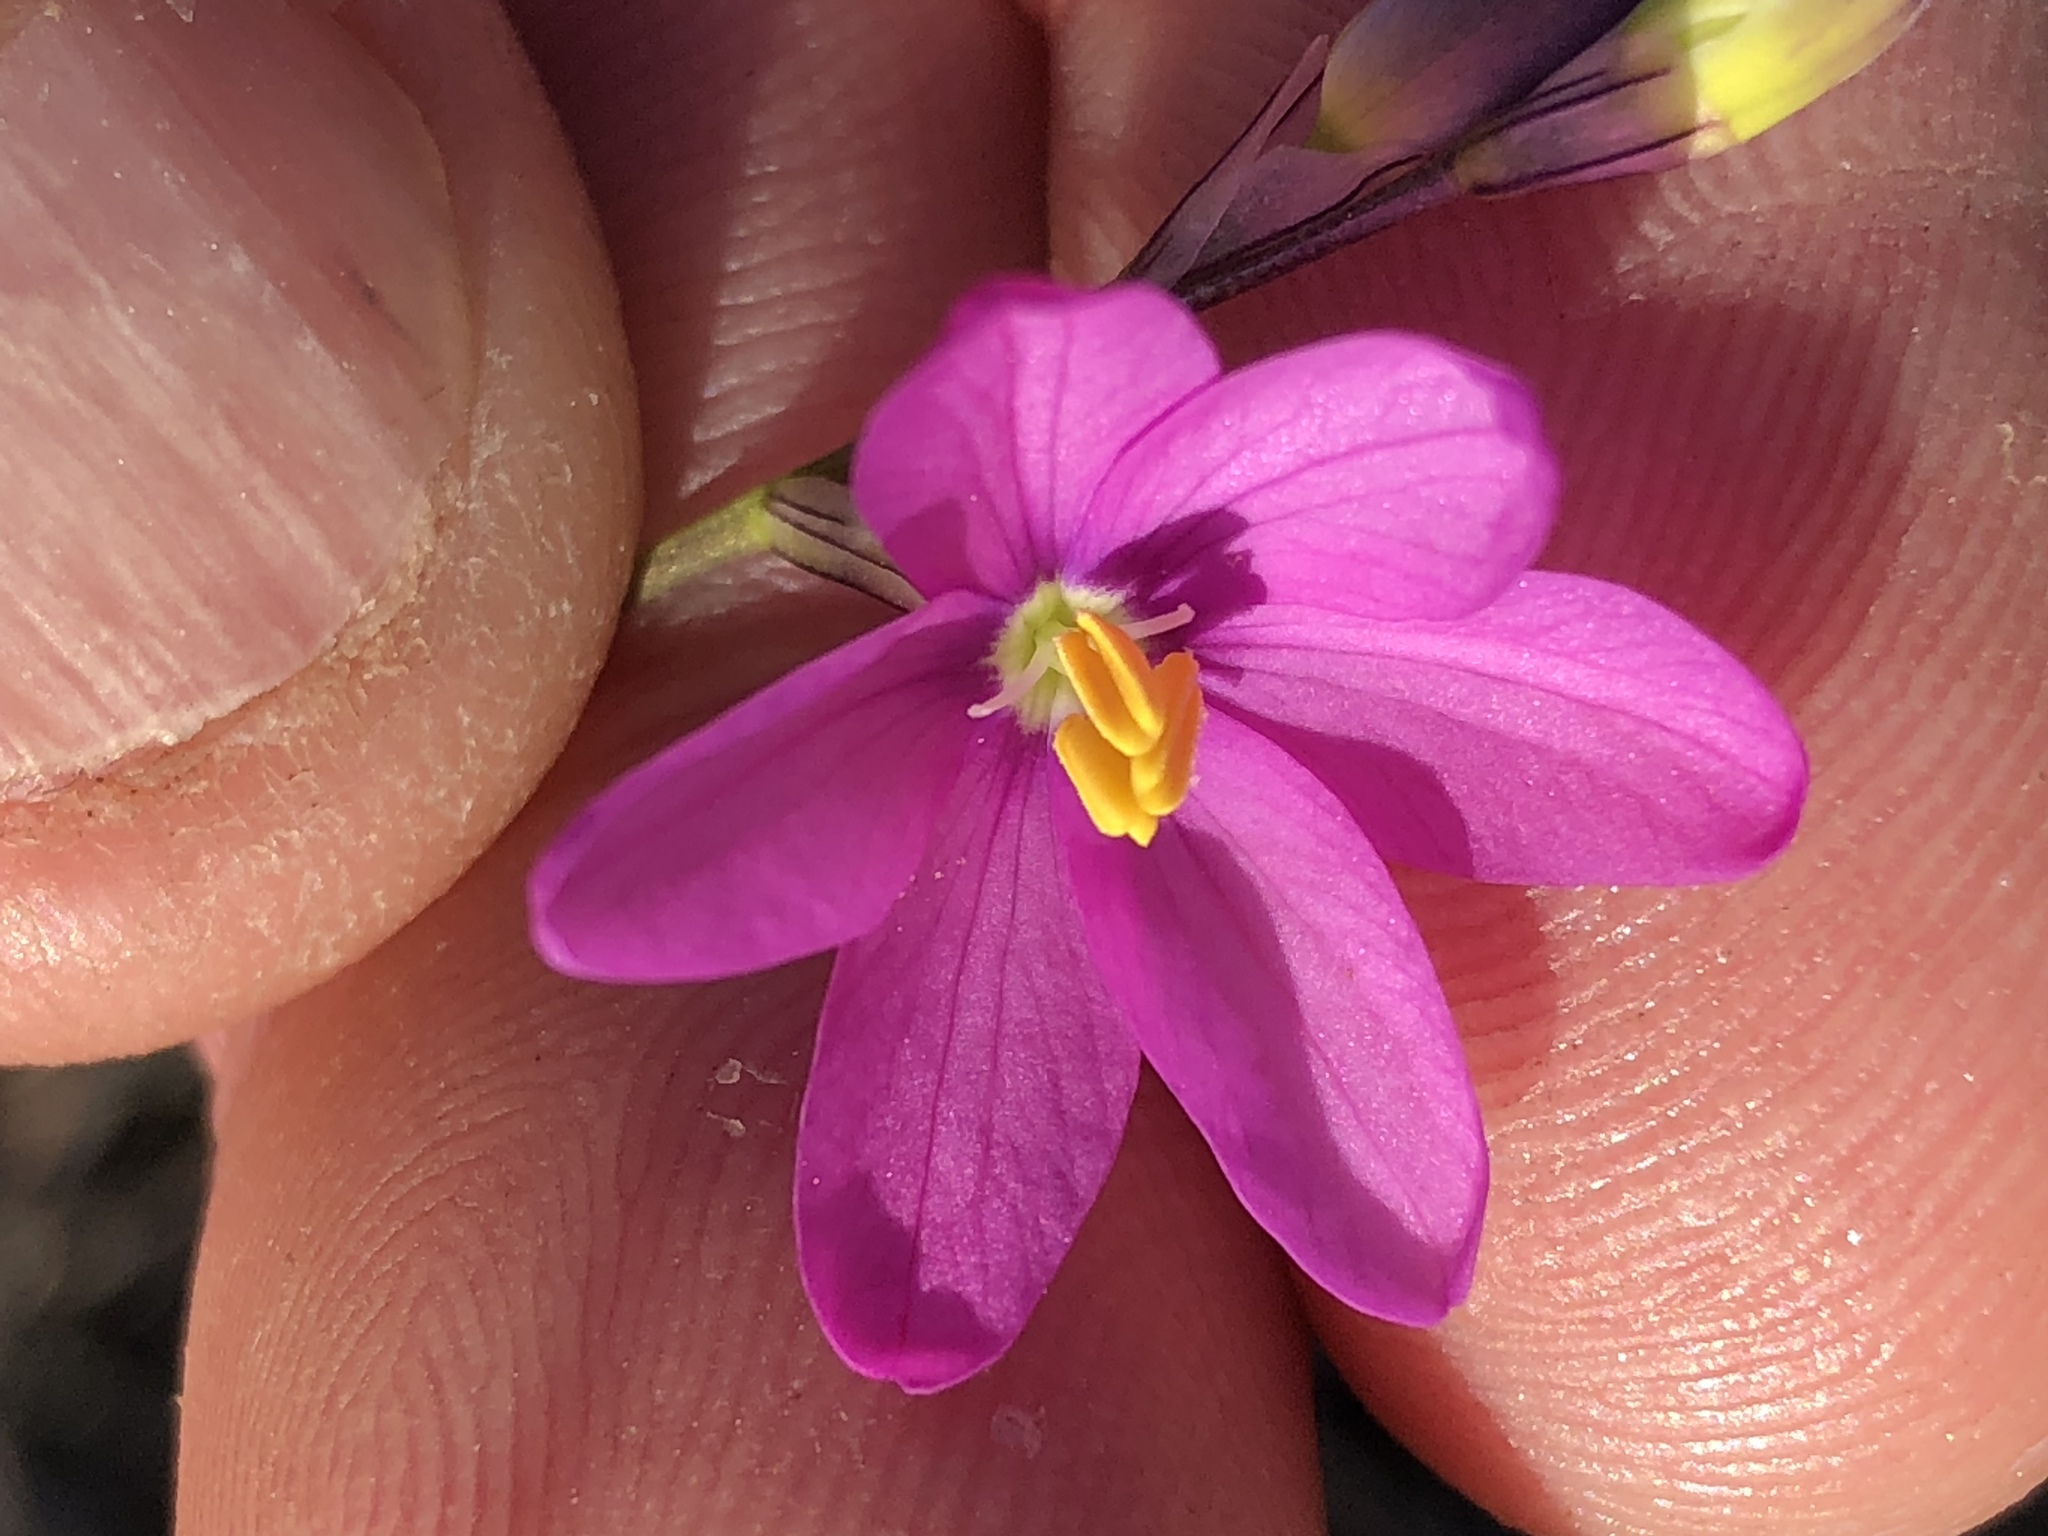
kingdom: Plantae
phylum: Tracheophyta
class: Liliopsida
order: Asparagales
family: Iridaceae
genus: Ixia
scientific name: Ixia orientalis
